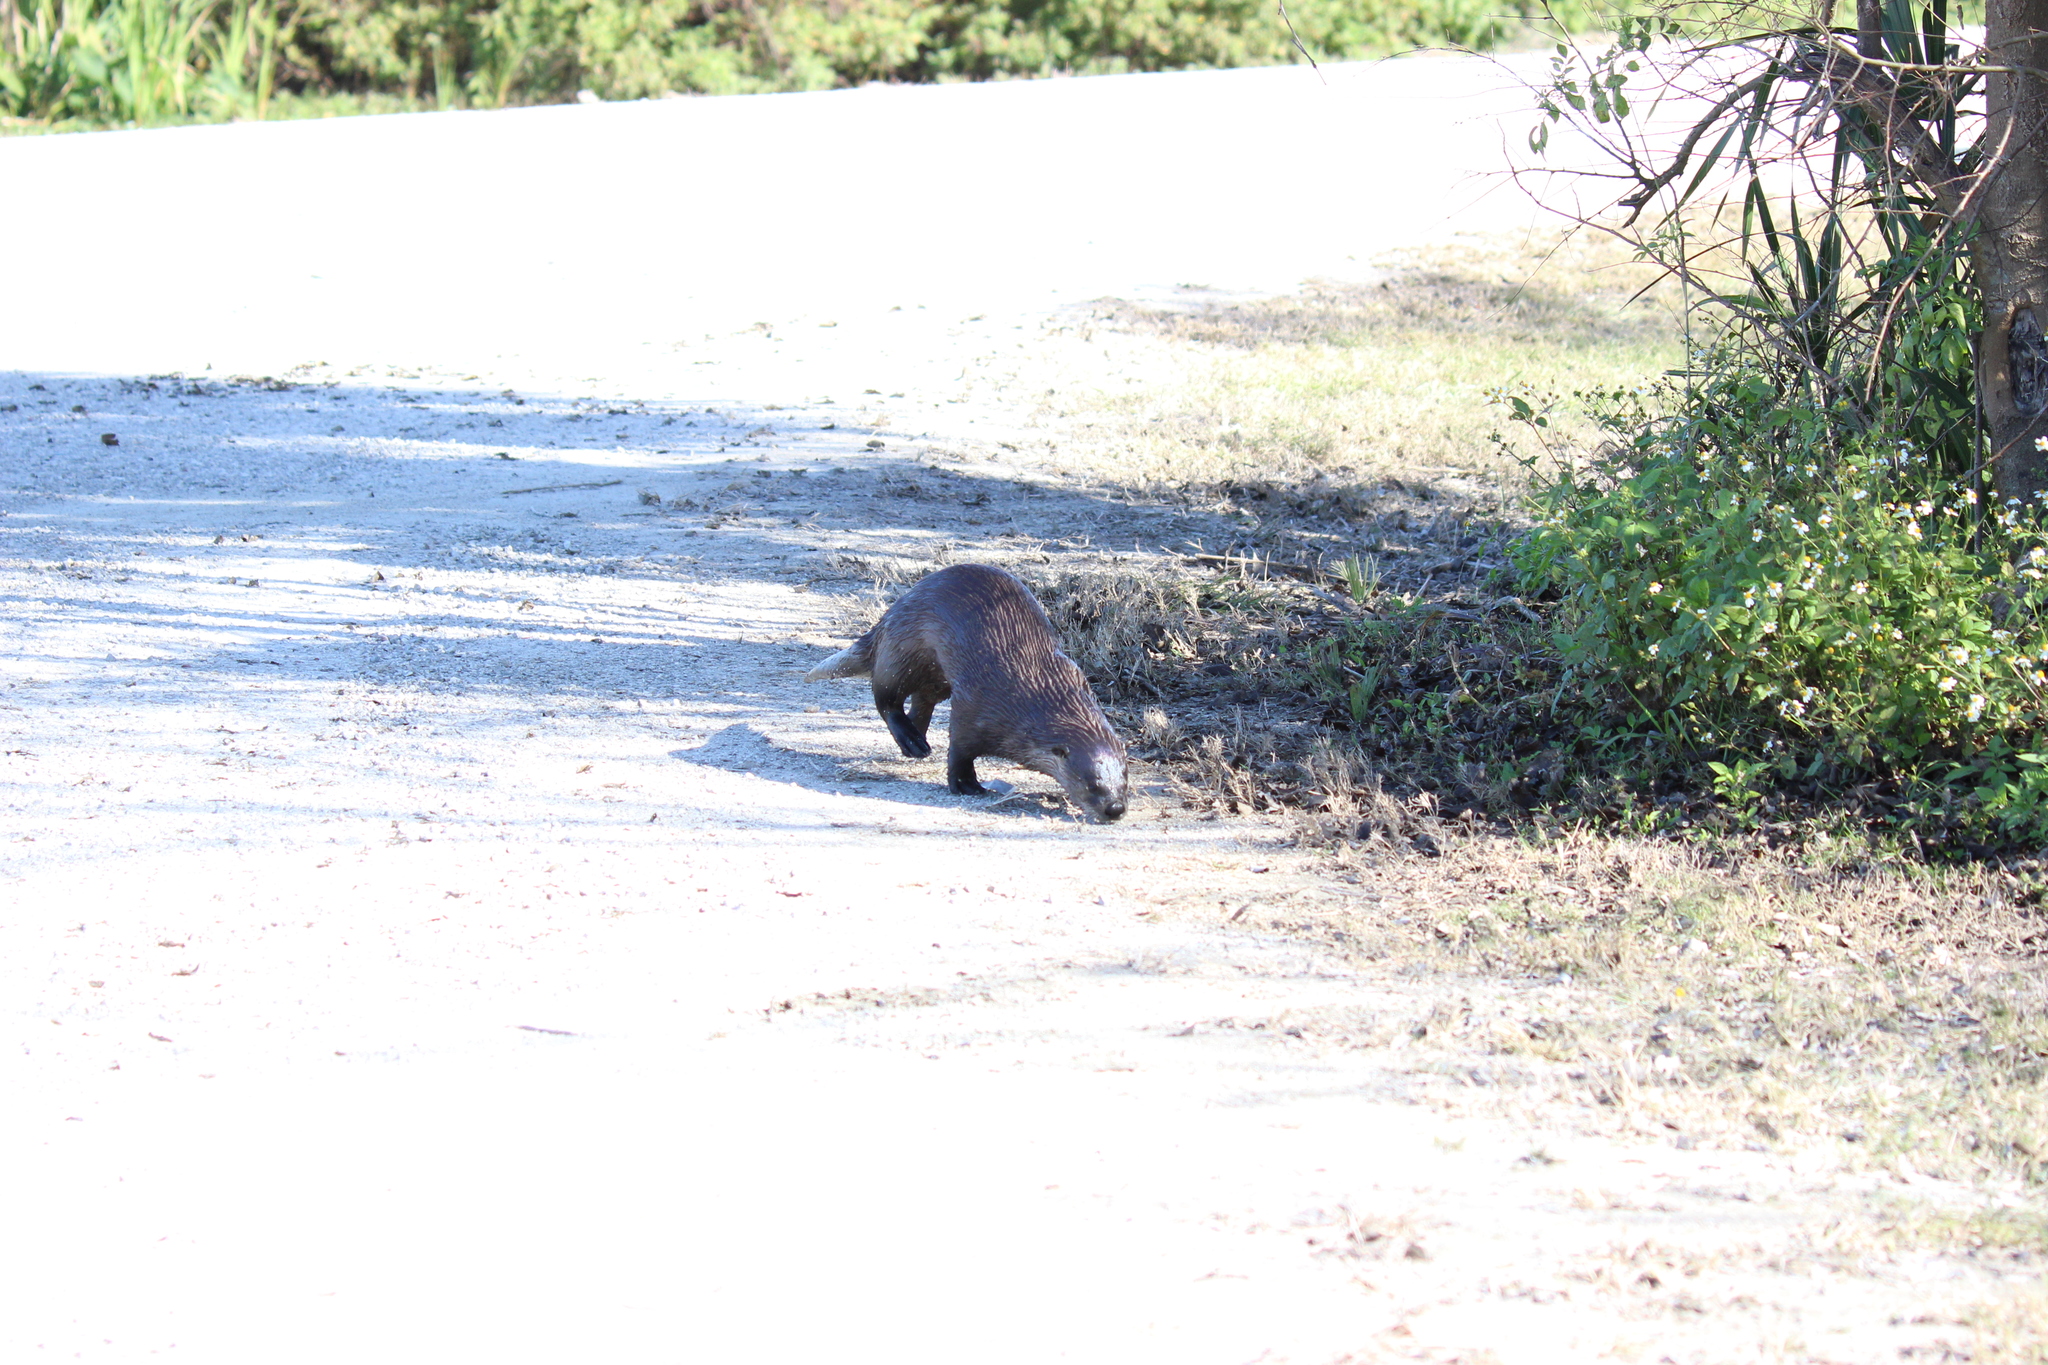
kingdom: Animalia
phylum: Chordata
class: Mammalia
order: Carnivora
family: Mustelidae
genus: Lontra
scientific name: Lontra canadensis
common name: North american river otter
